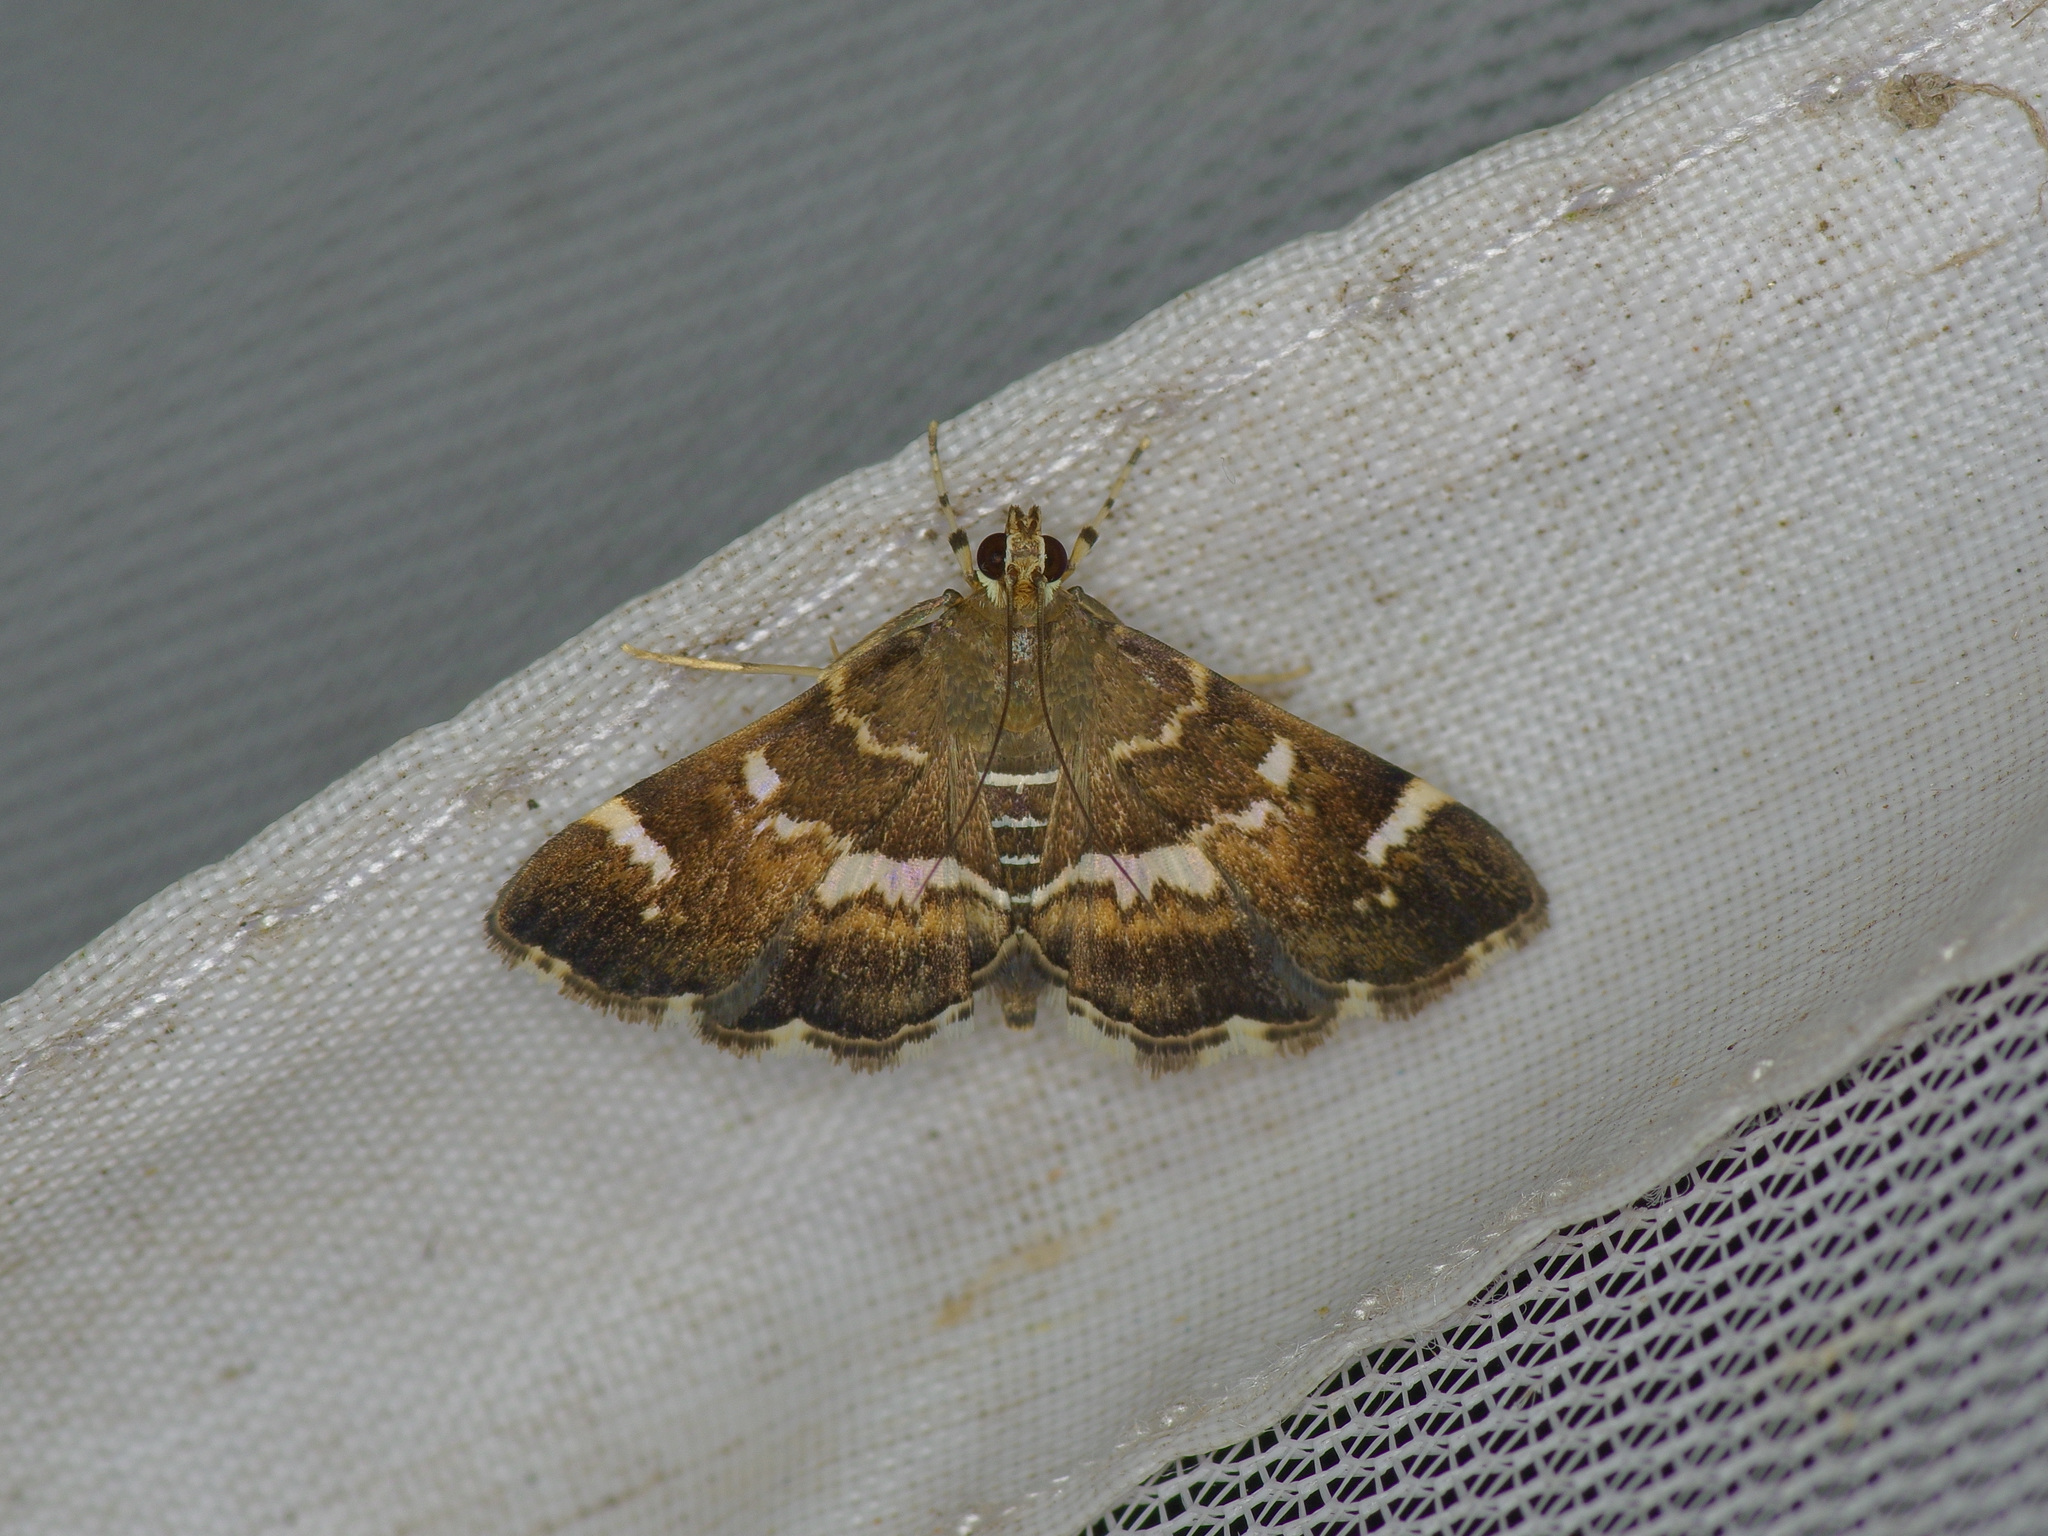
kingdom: Animalia
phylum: Arthropoda
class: Insecta
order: Lepidoptera
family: Crambidae
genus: Hymenia
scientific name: Hymenia perspectalis
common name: Spotted beet webworm
